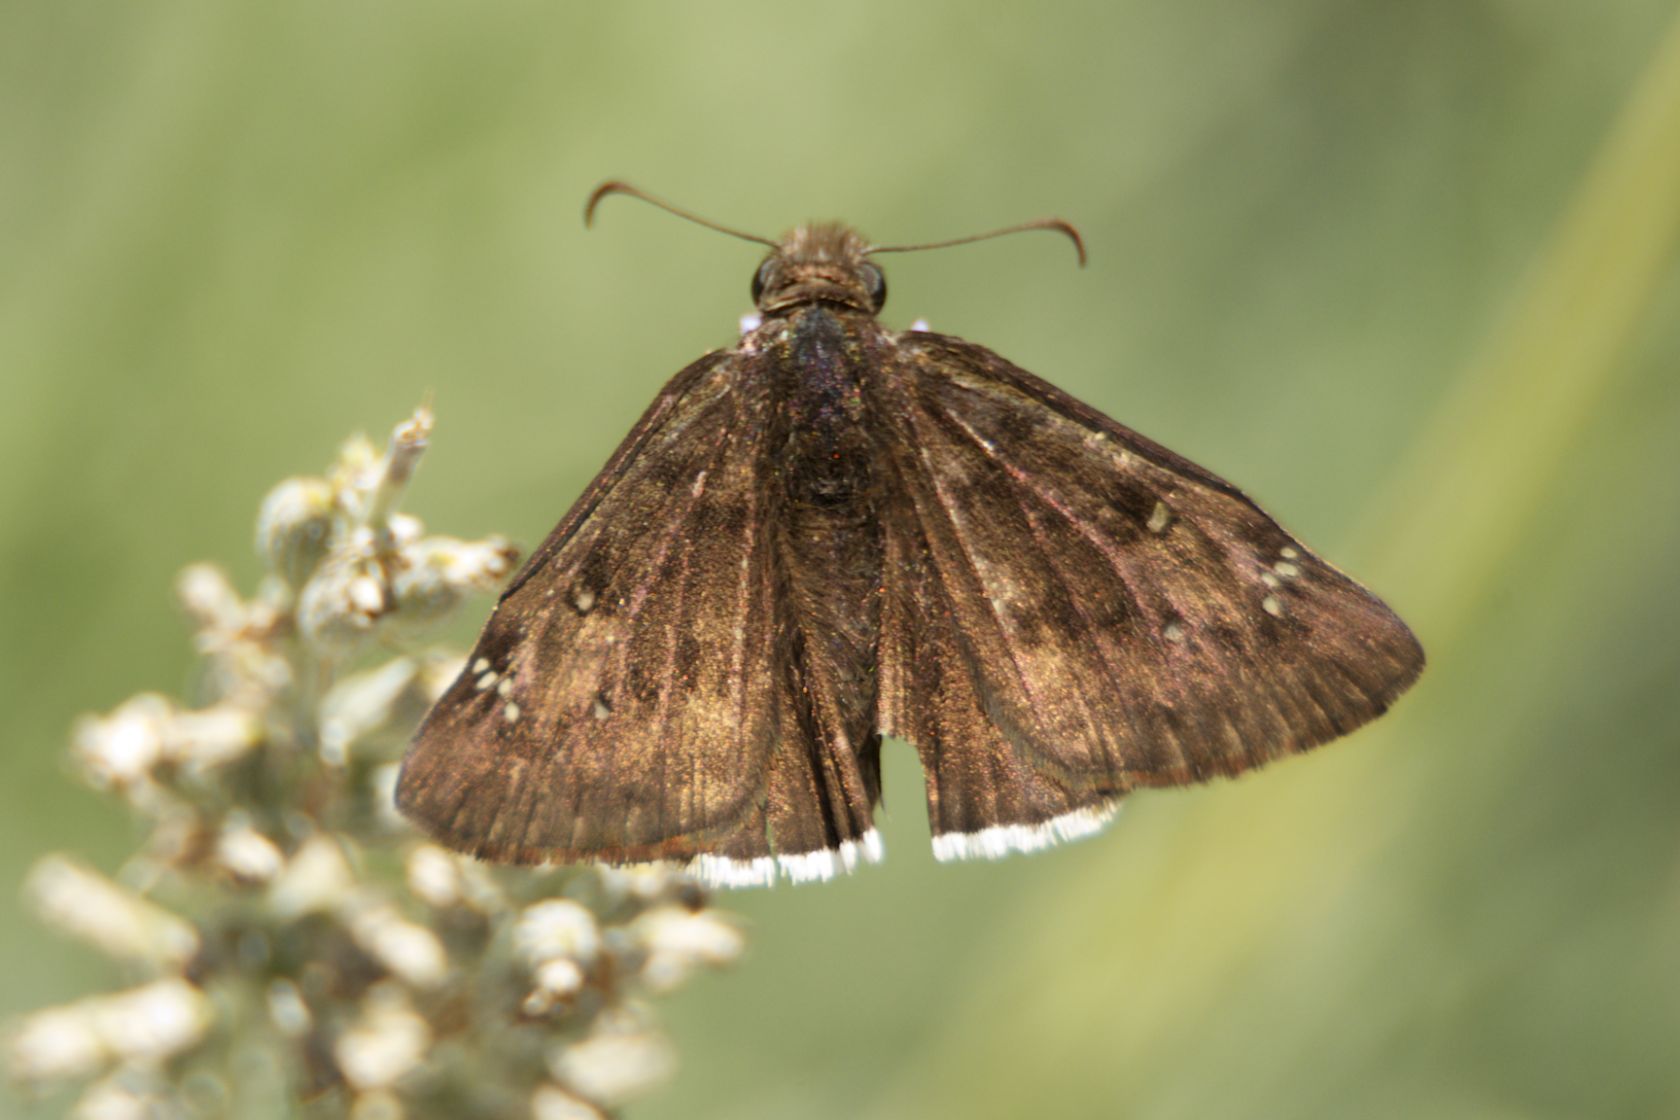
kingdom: Animalia
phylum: Arthropoda
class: Insecta
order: Lepidoptera
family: Hesperiidae
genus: Erynnis
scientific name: Erynnis tristis
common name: Mournful duskywing
